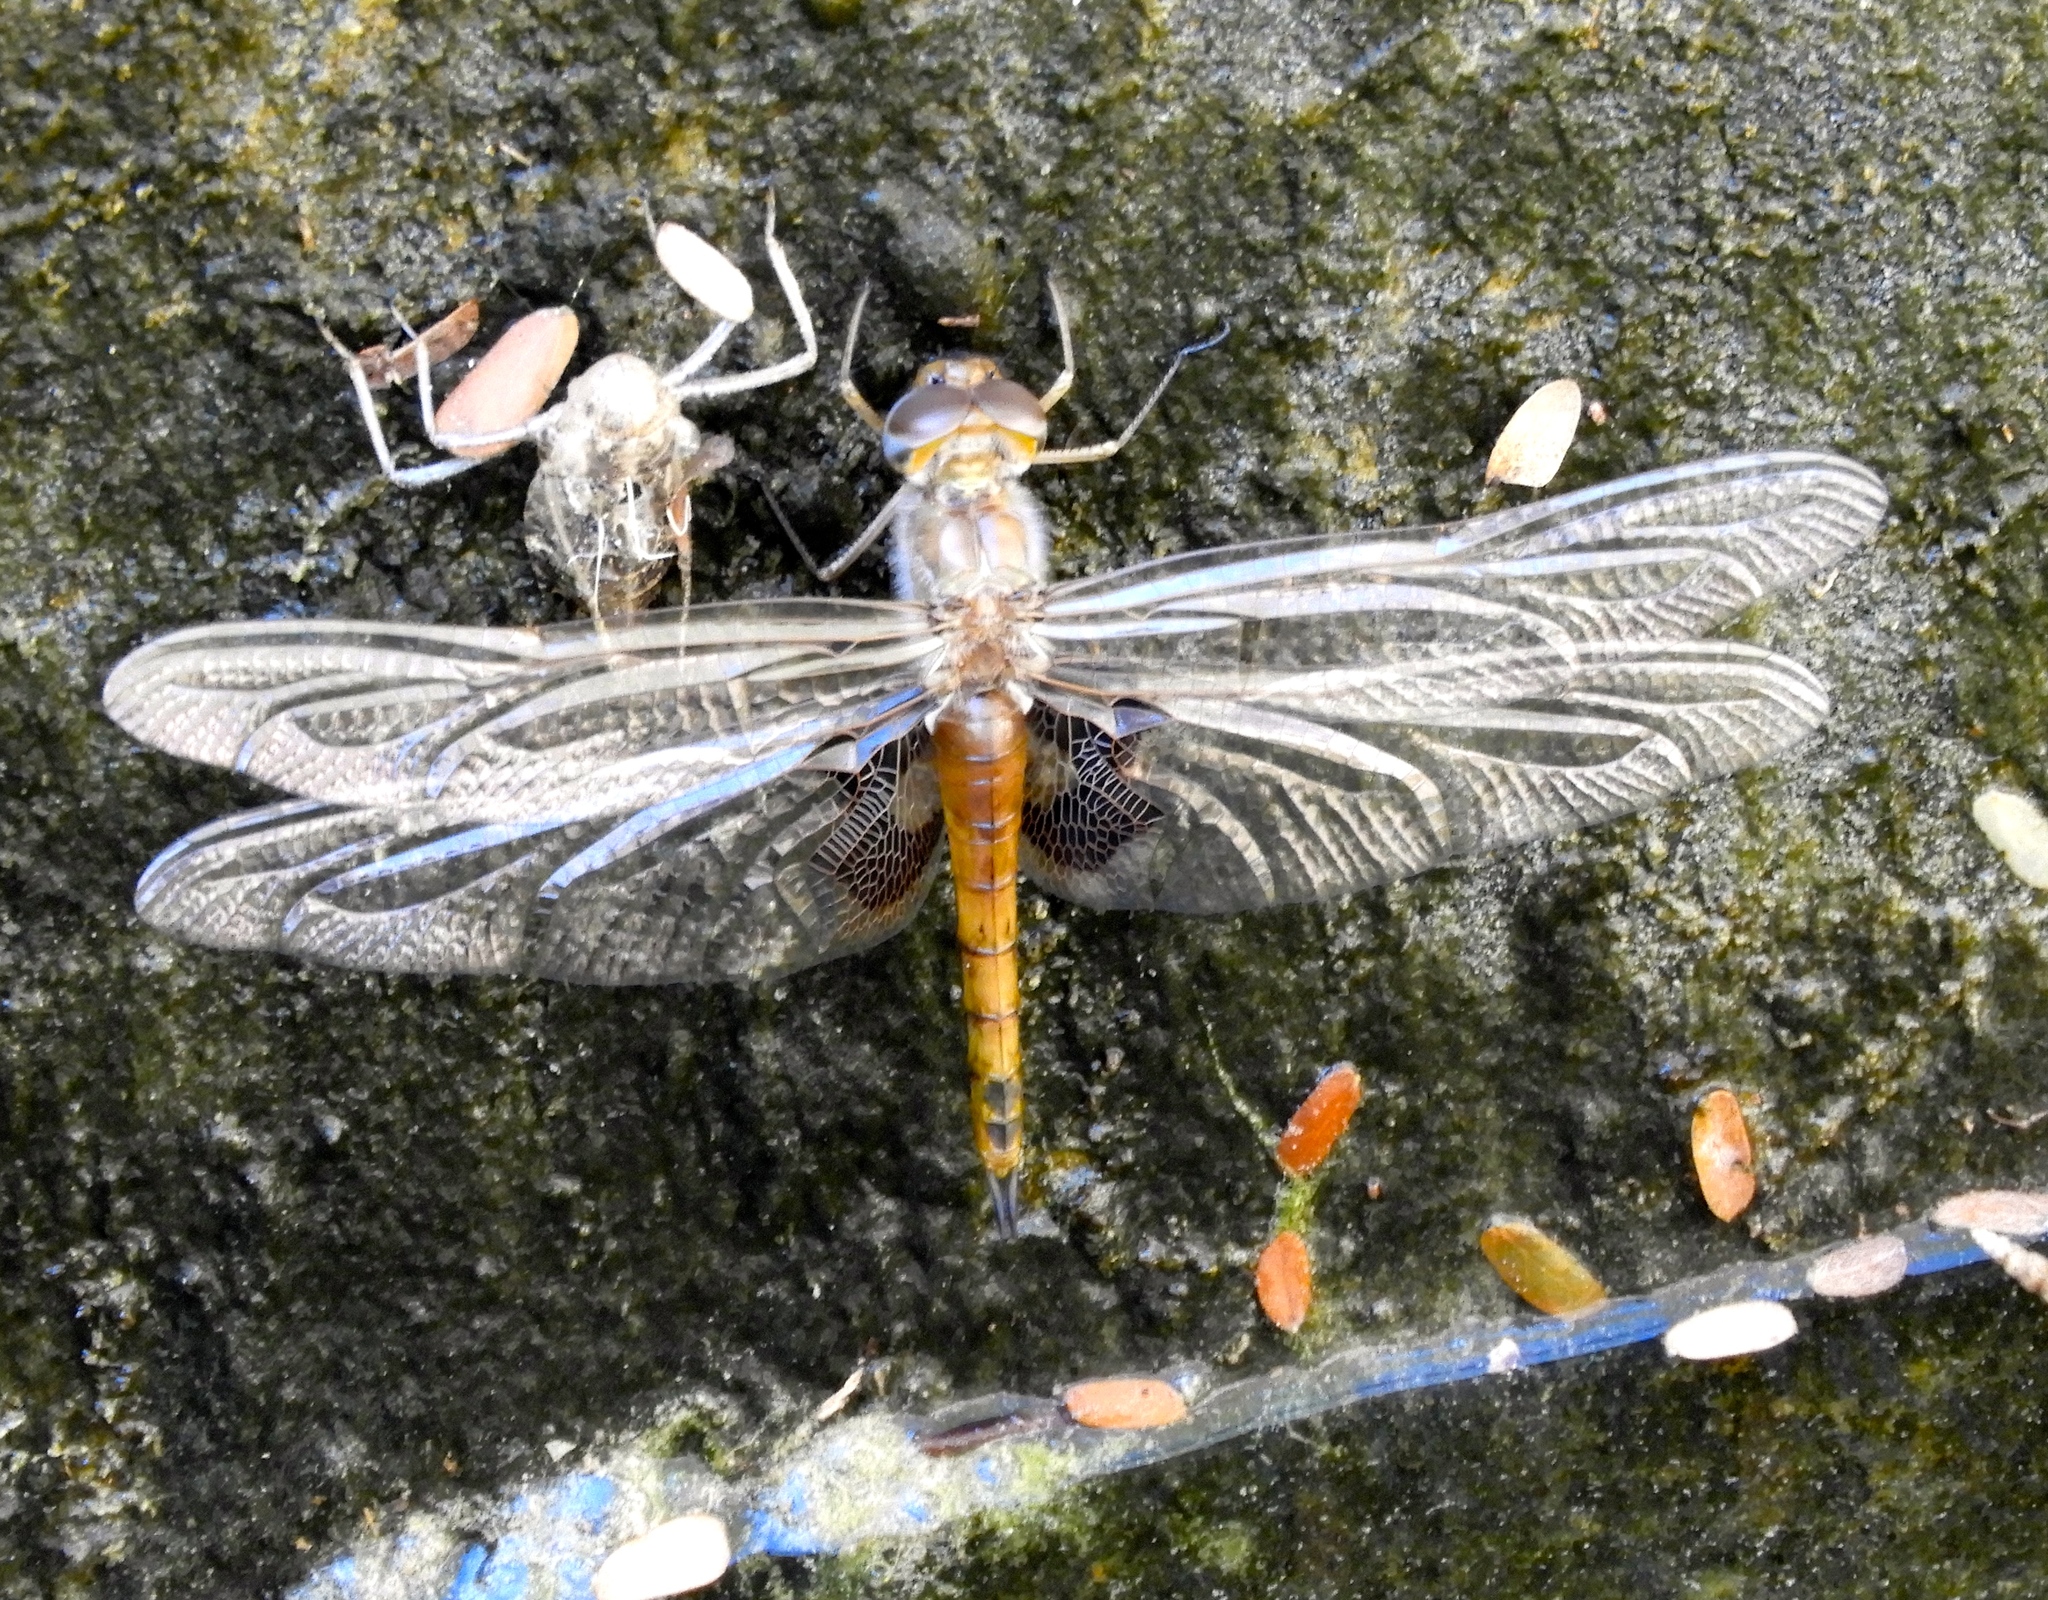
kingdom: Animalia
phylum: Arthropoda
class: Insecta
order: Odonata
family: Libellulidae
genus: Tramea
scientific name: Tramea onusta
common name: Red saddlebags
